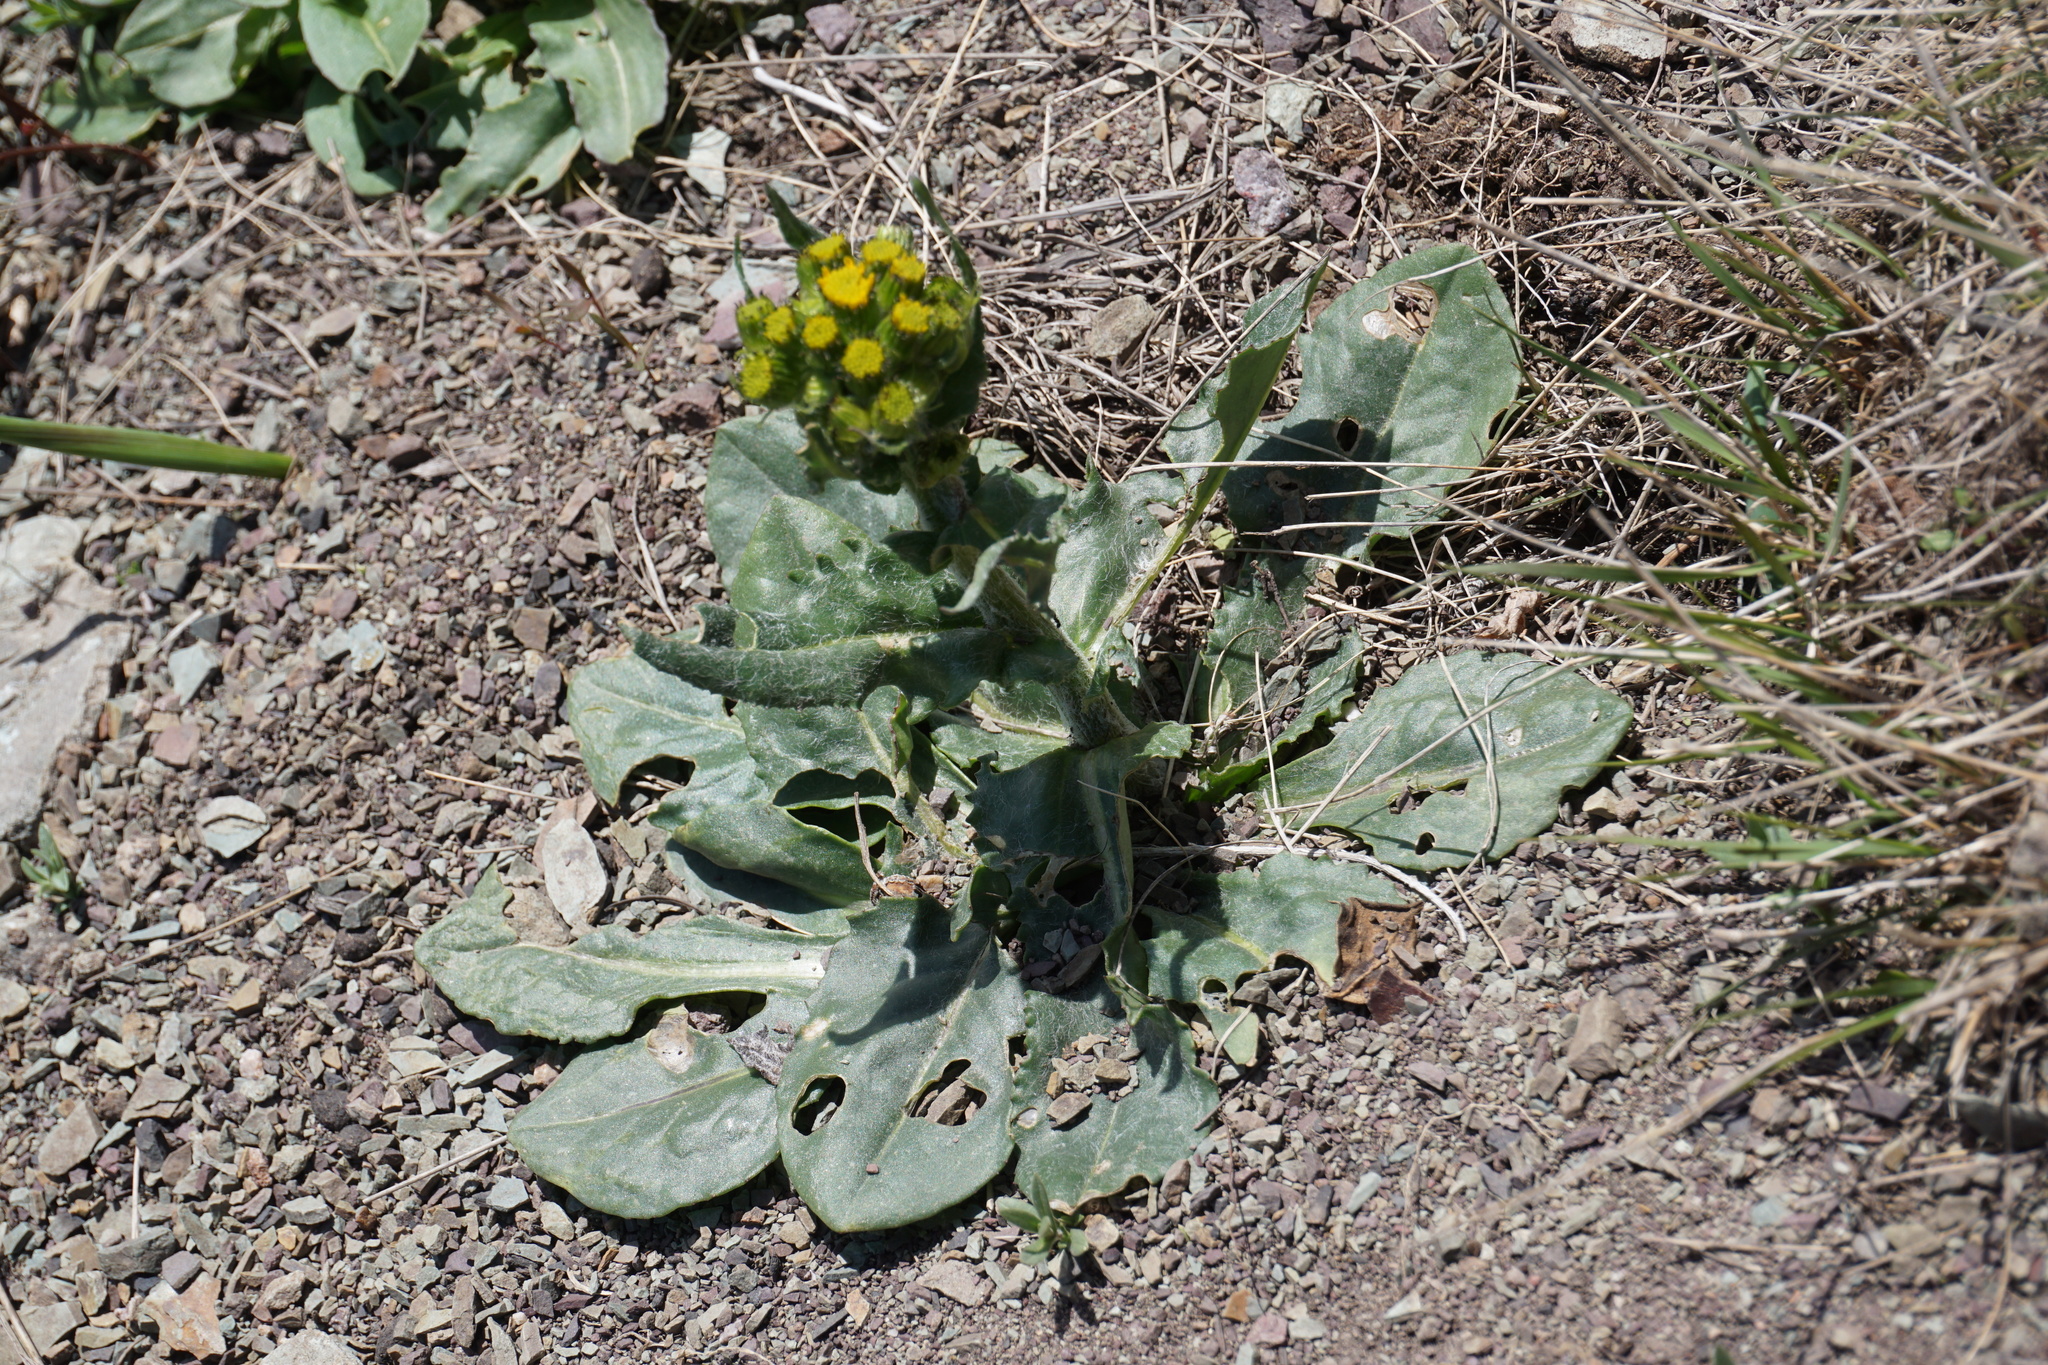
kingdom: Plantae
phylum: Tracheophyta
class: Magnoliopsida
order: Asterales
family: Asteraceae
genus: Senecio
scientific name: Senecio integerrimus
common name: Gaugeplant
